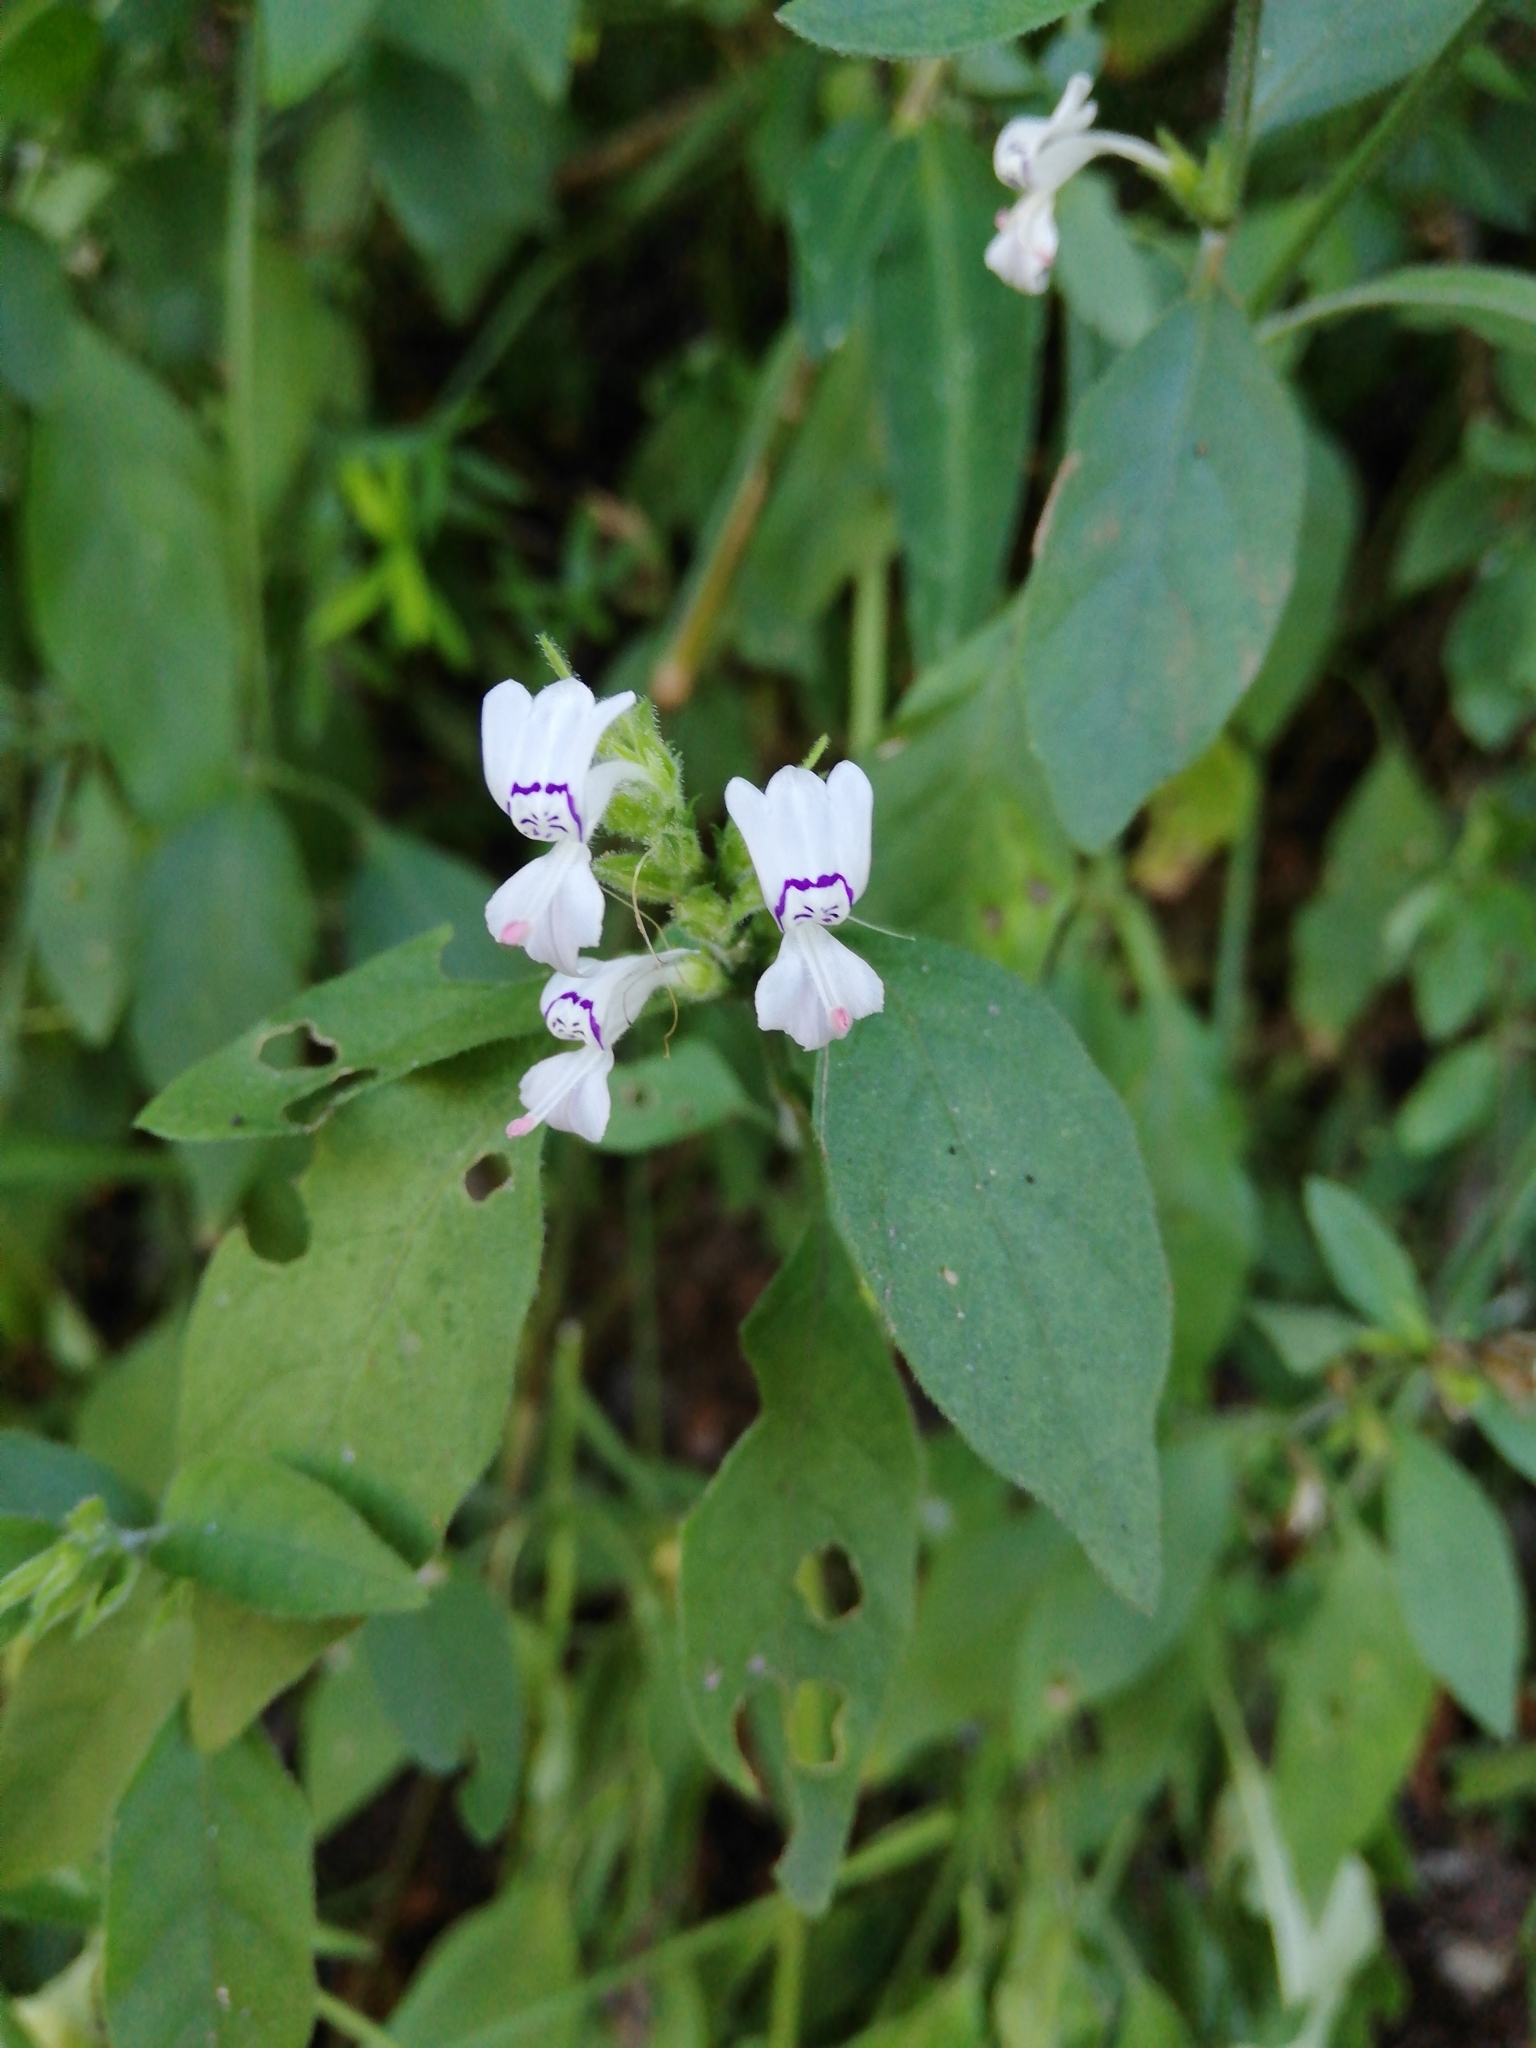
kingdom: Plantae
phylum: Tracheophyta
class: Magnoliopsida
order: Lamiales
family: Acanthaceae
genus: Hypoestes
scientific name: Hypoestes forskaolii
